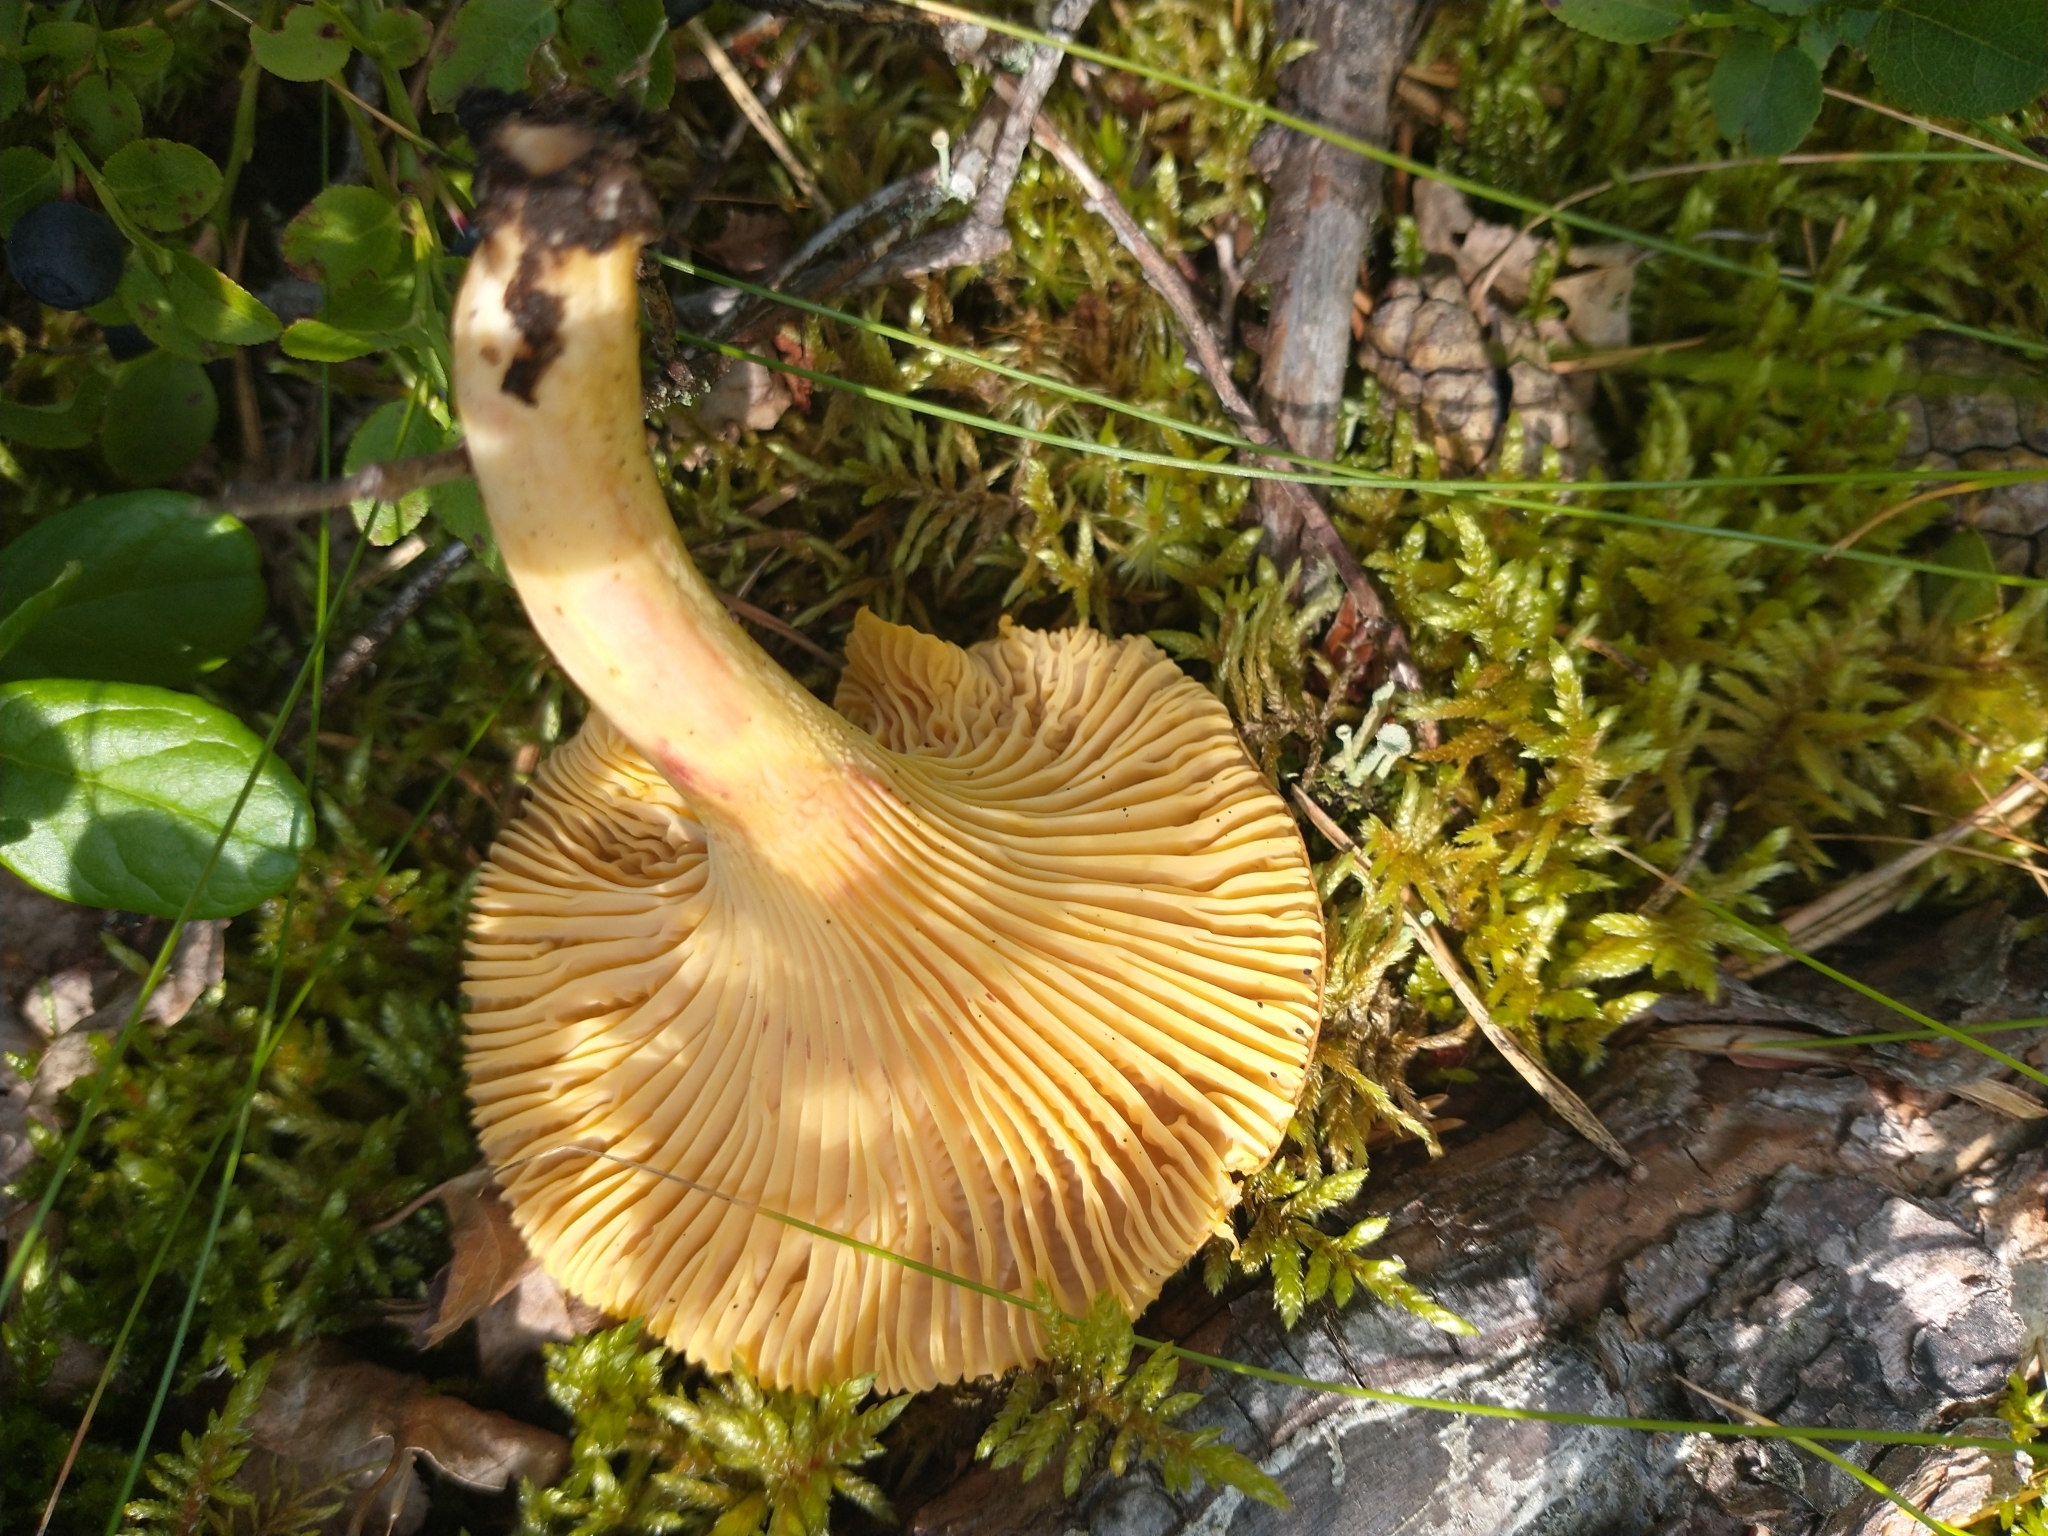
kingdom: Fungi
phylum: Basidiomycota
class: Agaricomycetes
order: Cantharellales
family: Hydnaceae
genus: Cantharellus
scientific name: Cantharellus cibarius
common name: Chanterelle
